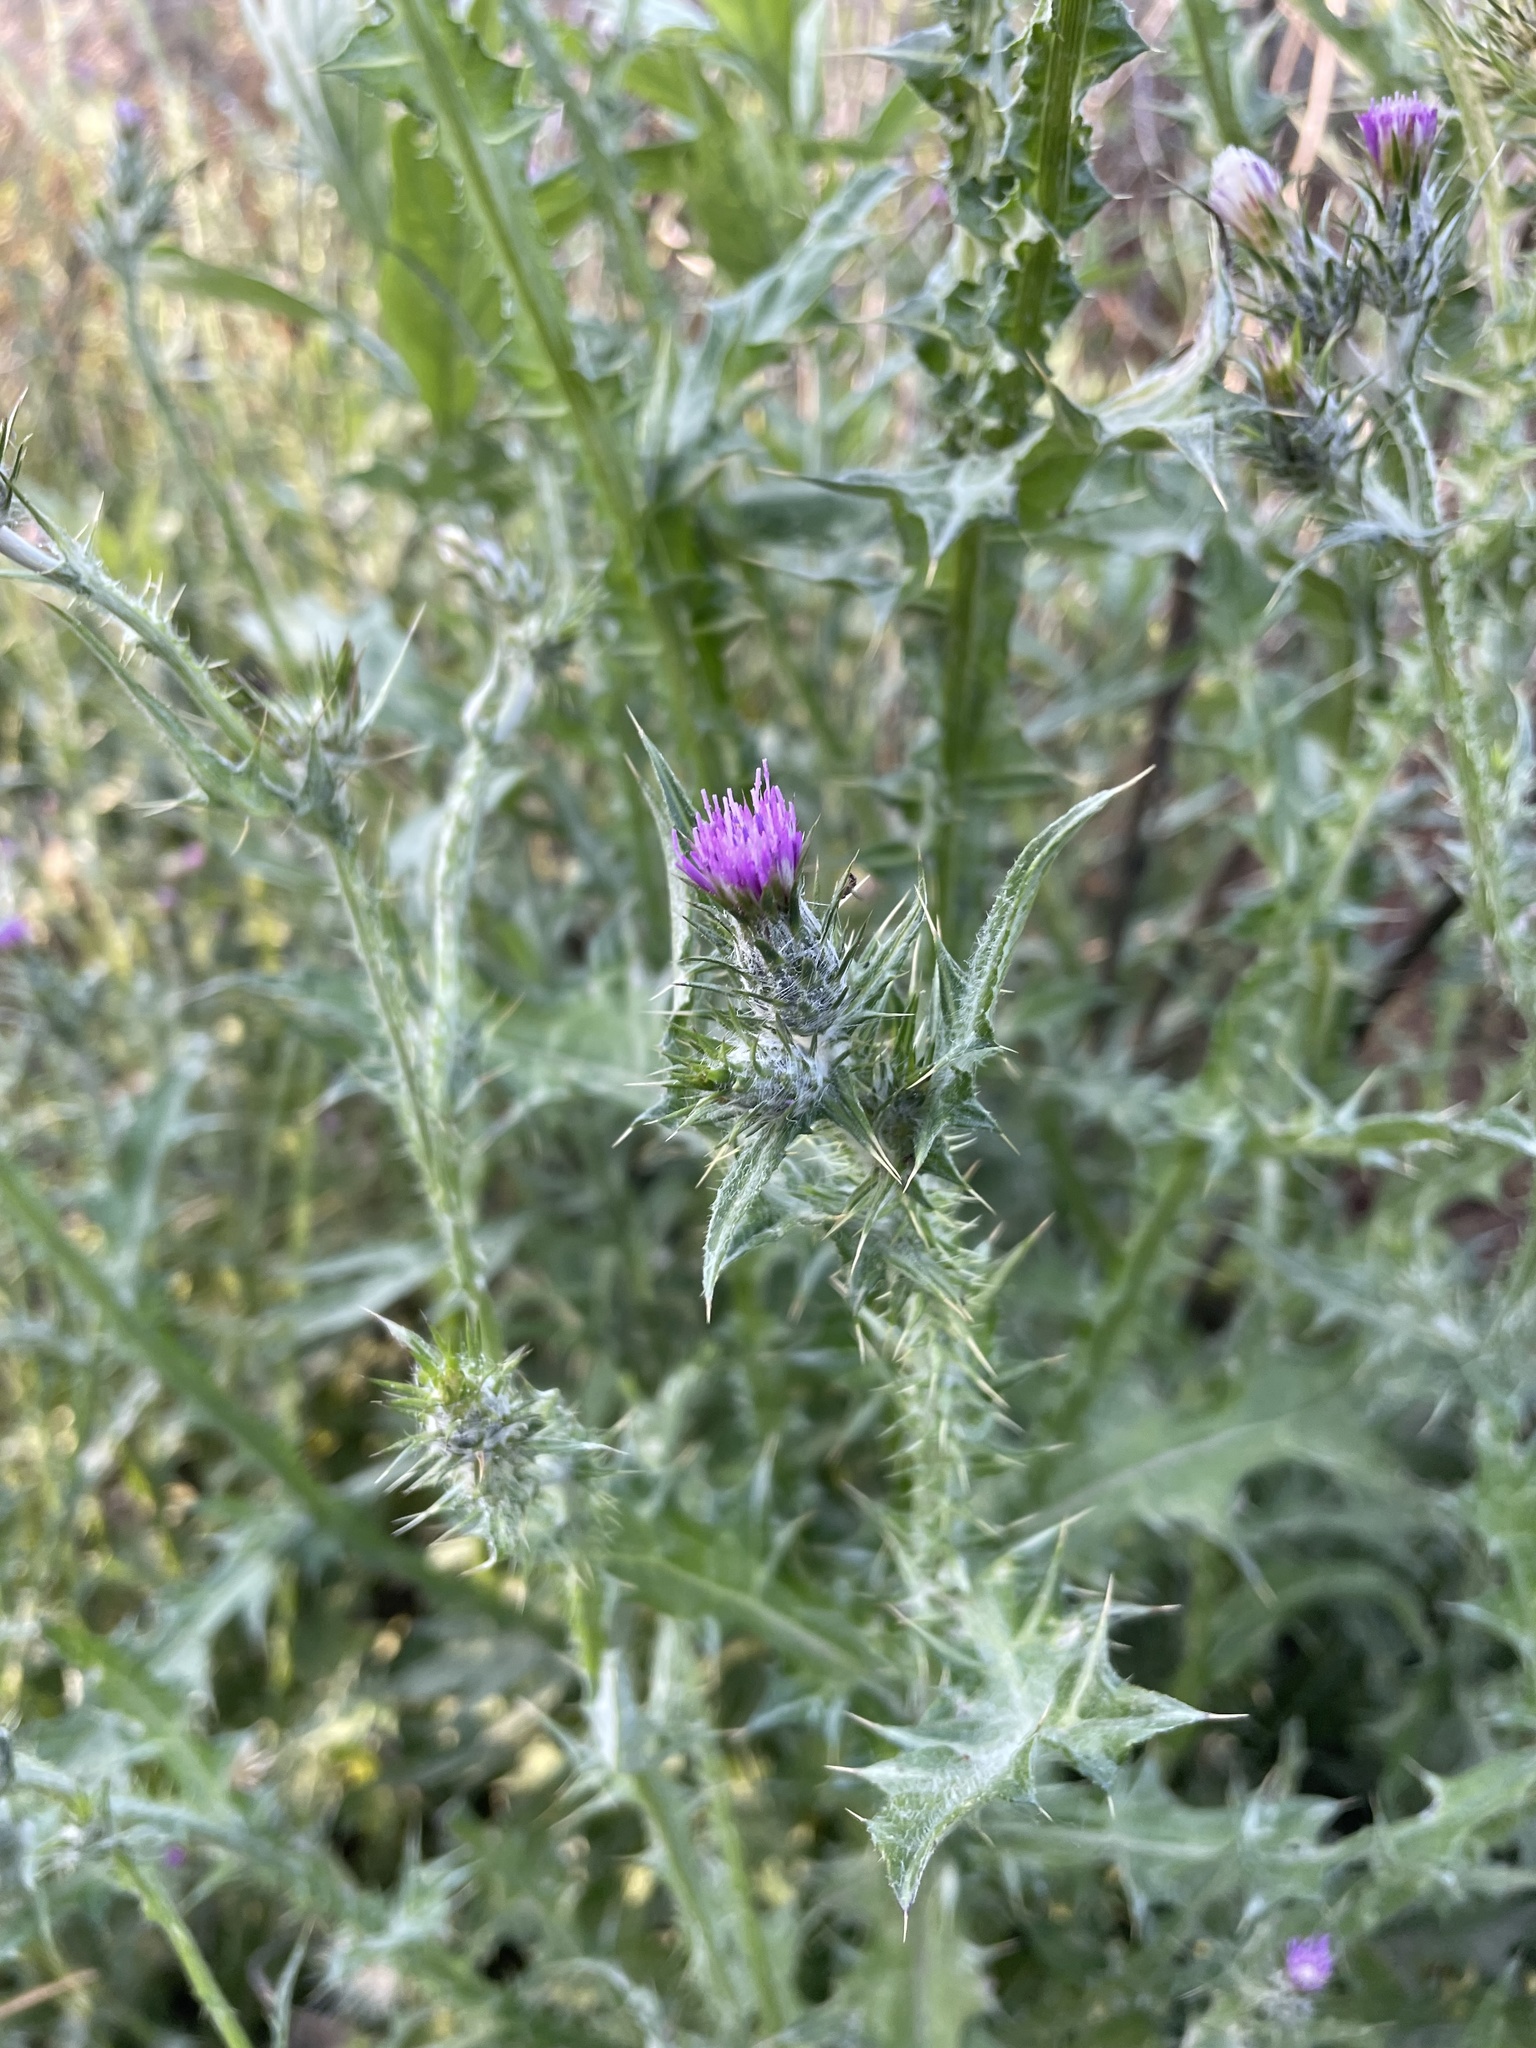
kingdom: Plantae
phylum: Tracheophyta
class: Magnoliopsida
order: Asterales
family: Asteraceae
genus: Carduus
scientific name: Carduus pycnocephalus
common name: Plymouth thistle
